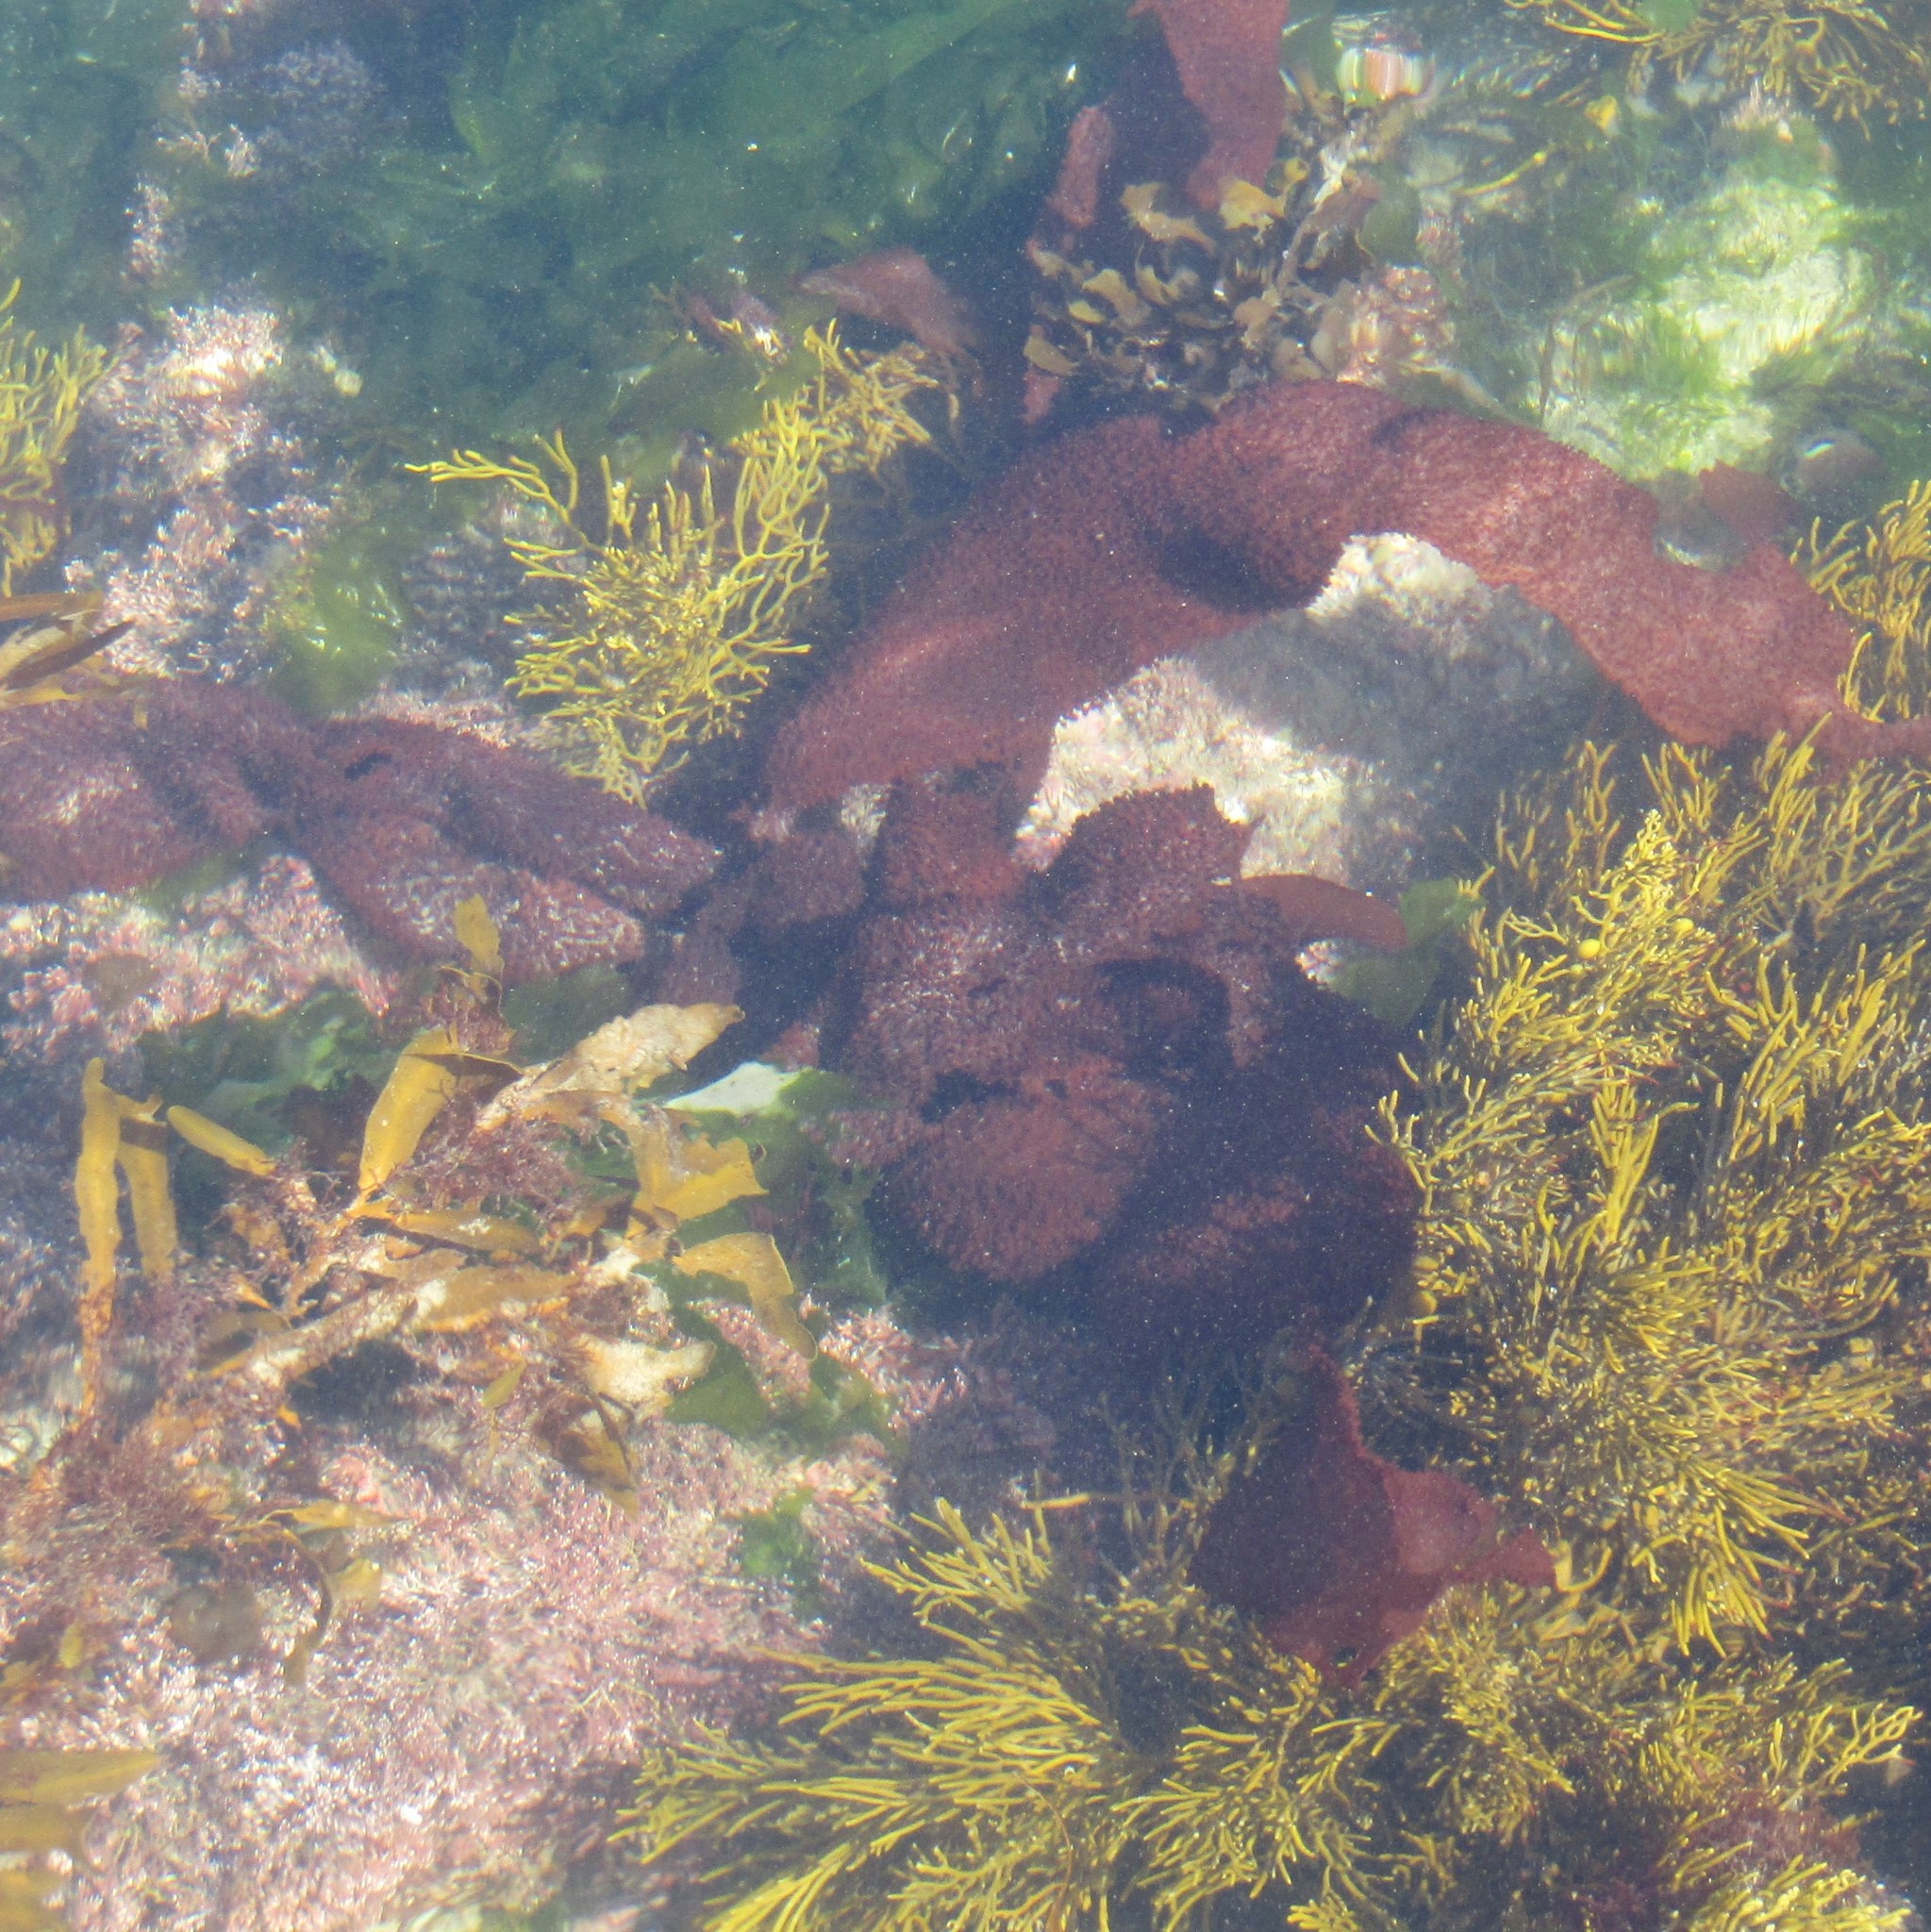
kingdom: Plantae
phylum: Rhodophyta
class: Florideophyceae
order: Gigartinales
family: Gigartinaceae
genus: Sarcothalia
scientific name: Sarcothalia
